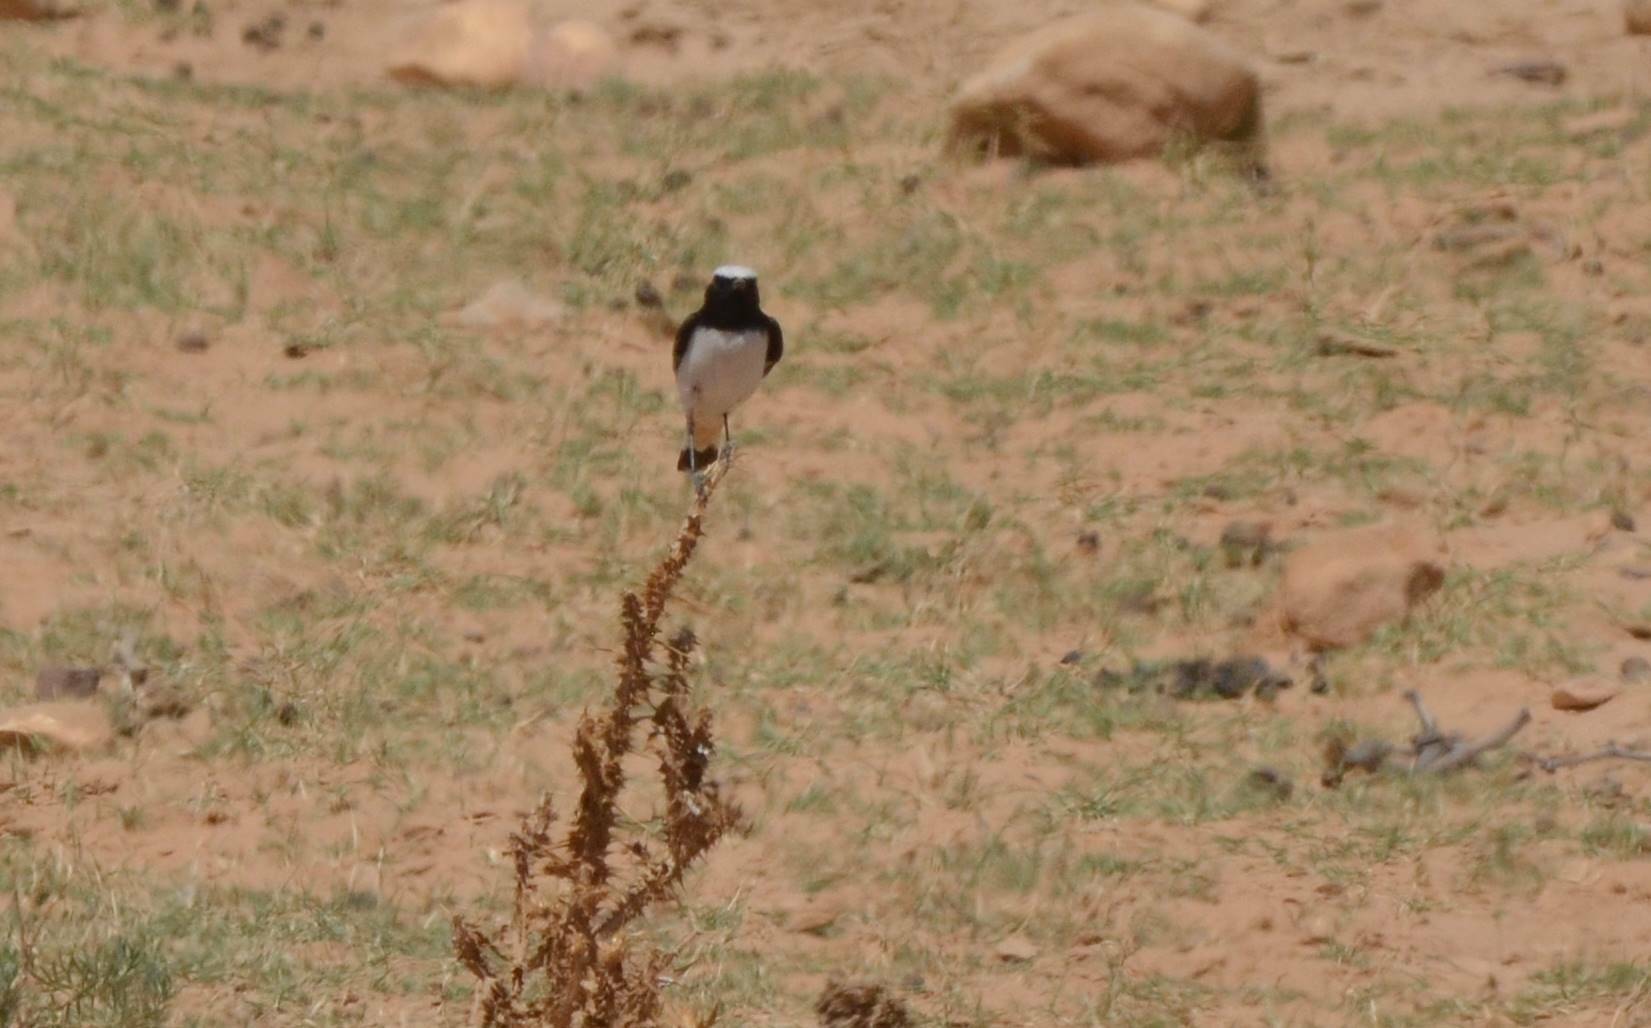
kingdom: Animalia
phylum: Chordata
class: Aves
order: Passeriformes
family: Muscicapidae
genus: Oenanthe
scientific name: Oenanthe lugens
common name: Mourning wheatear
